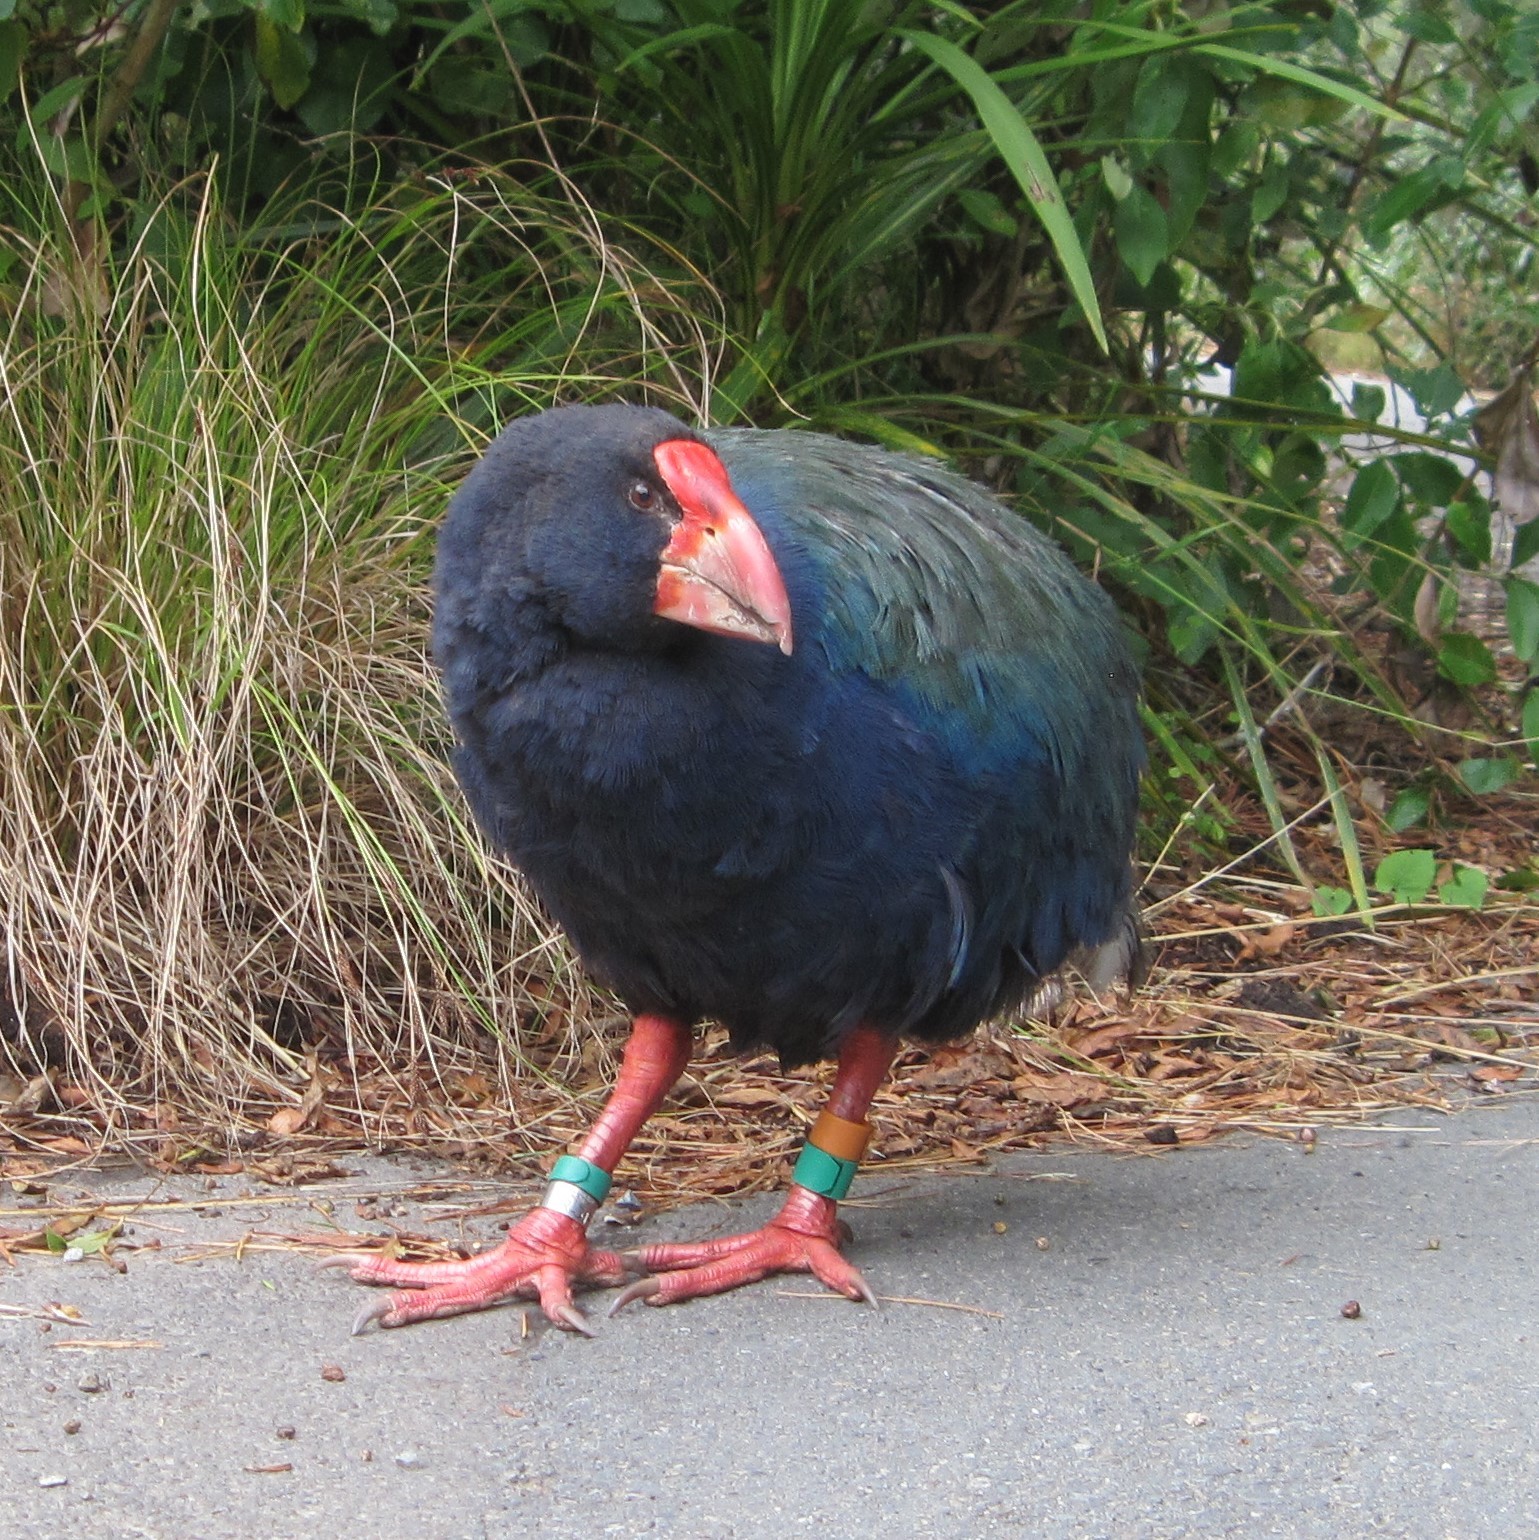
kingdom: Animalia
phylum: Chordata
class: Aves
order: Gruiformes
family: Rallidae
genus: Porphyrio
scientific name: Porphyrio hochstetteri
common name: South island takahe
